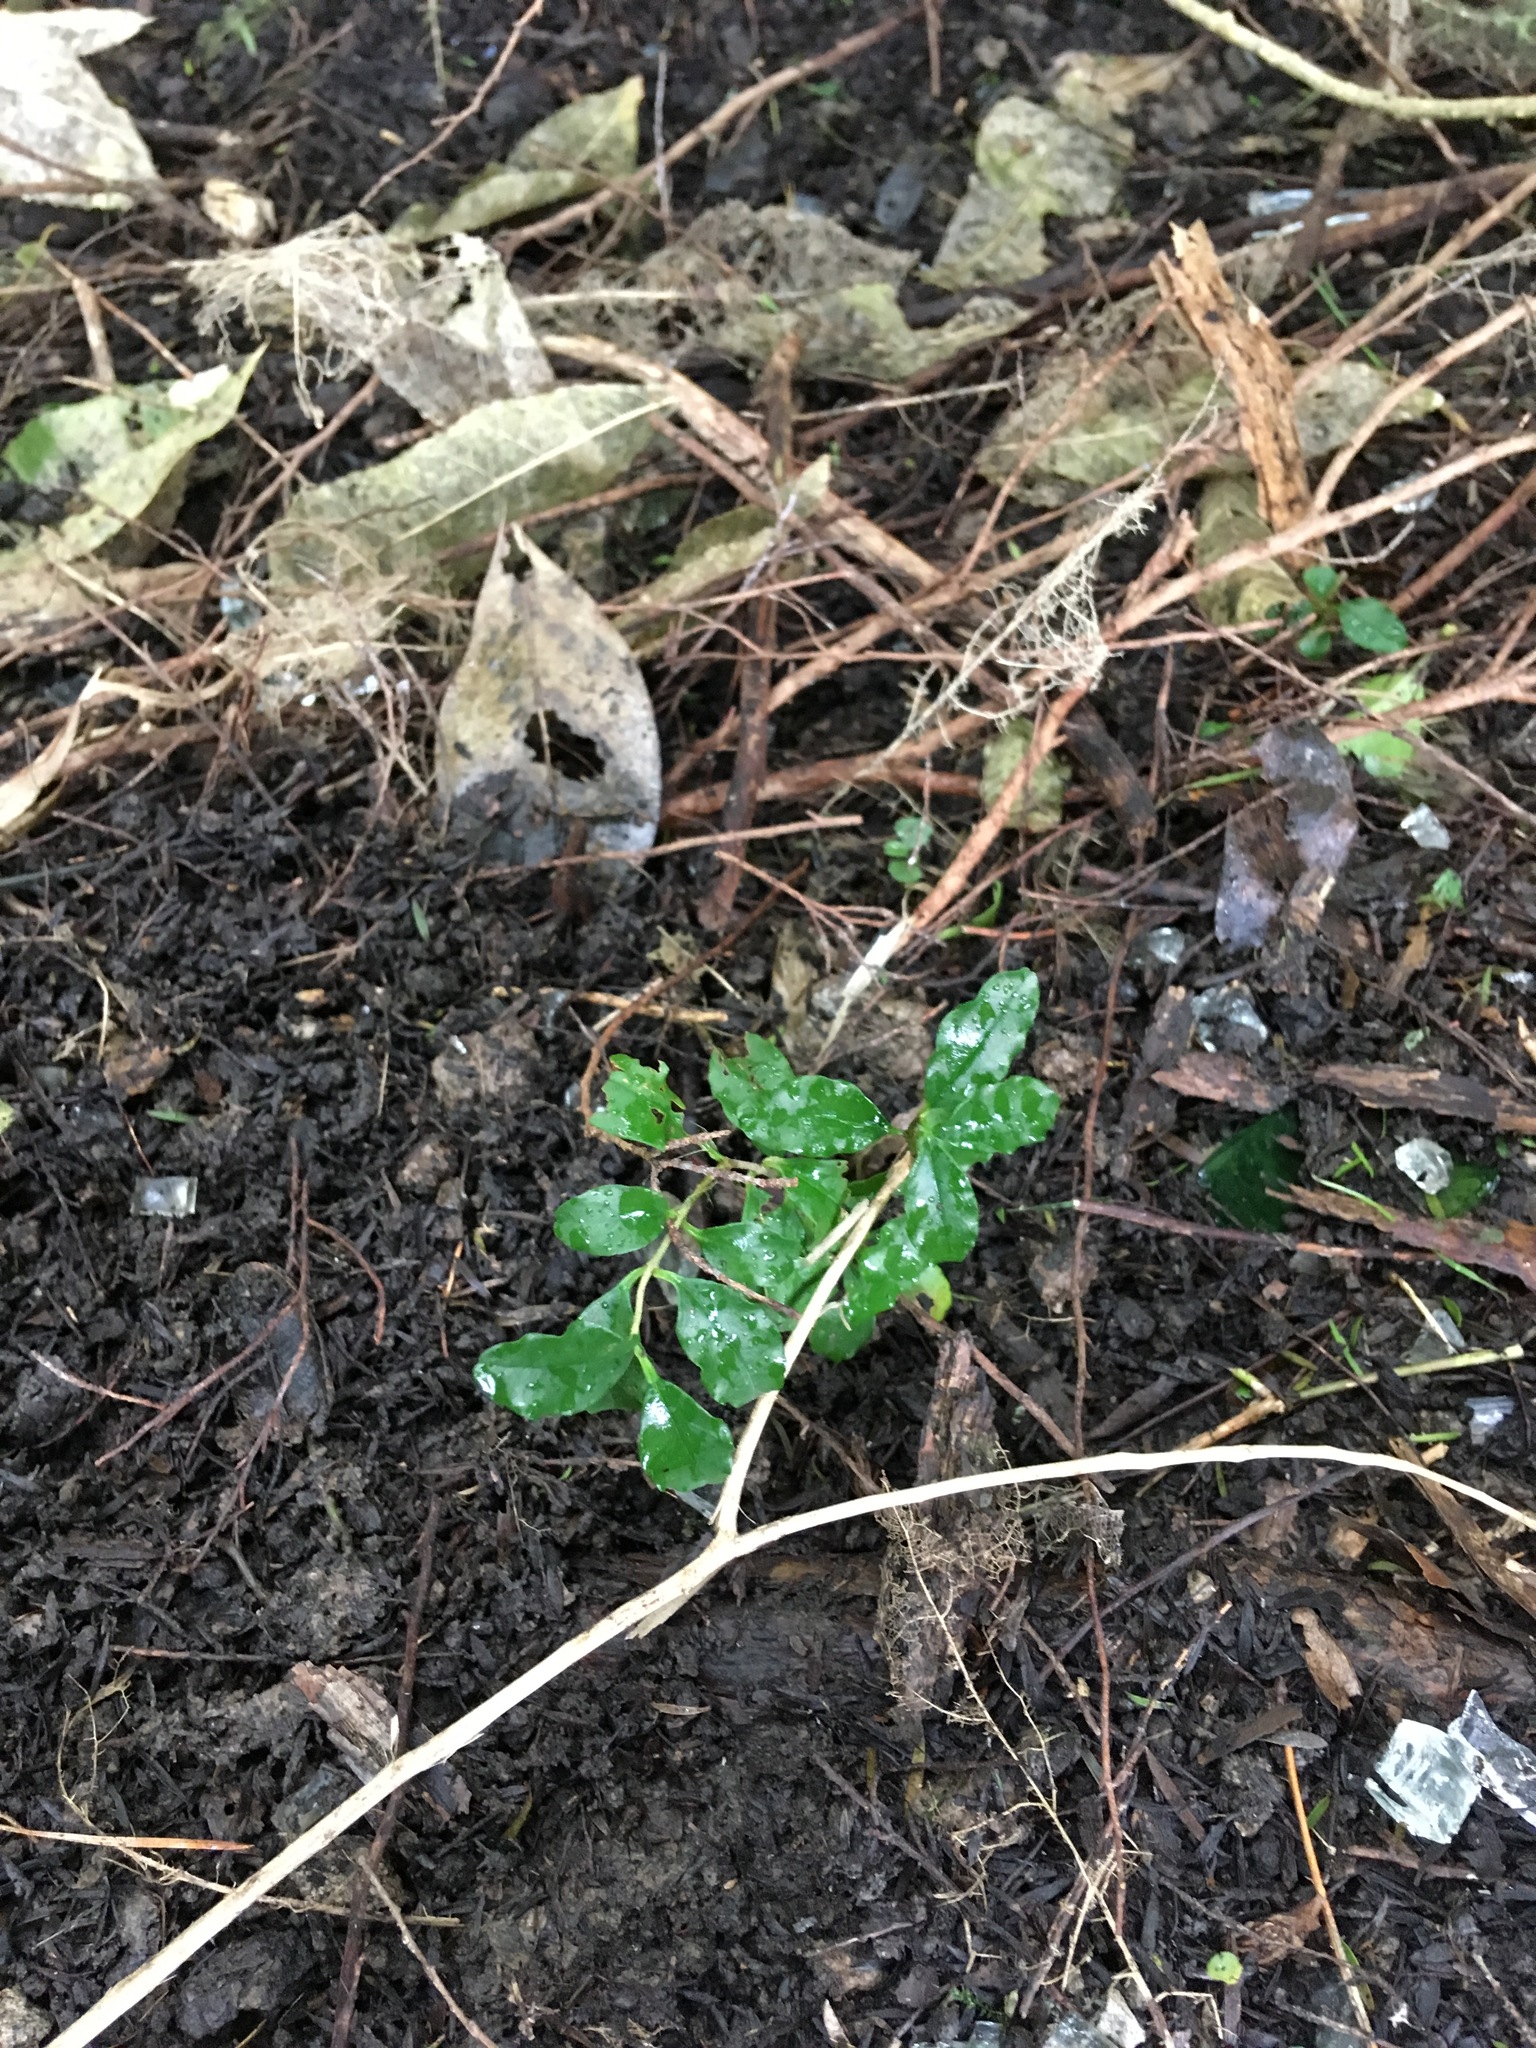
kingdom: Plantae
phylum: Tracheophyta
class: Magnoliopsida
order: Lamiales
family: Oleaceae
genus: Ligustrum
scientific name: Ligustrum sinense
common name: Chinese privet
